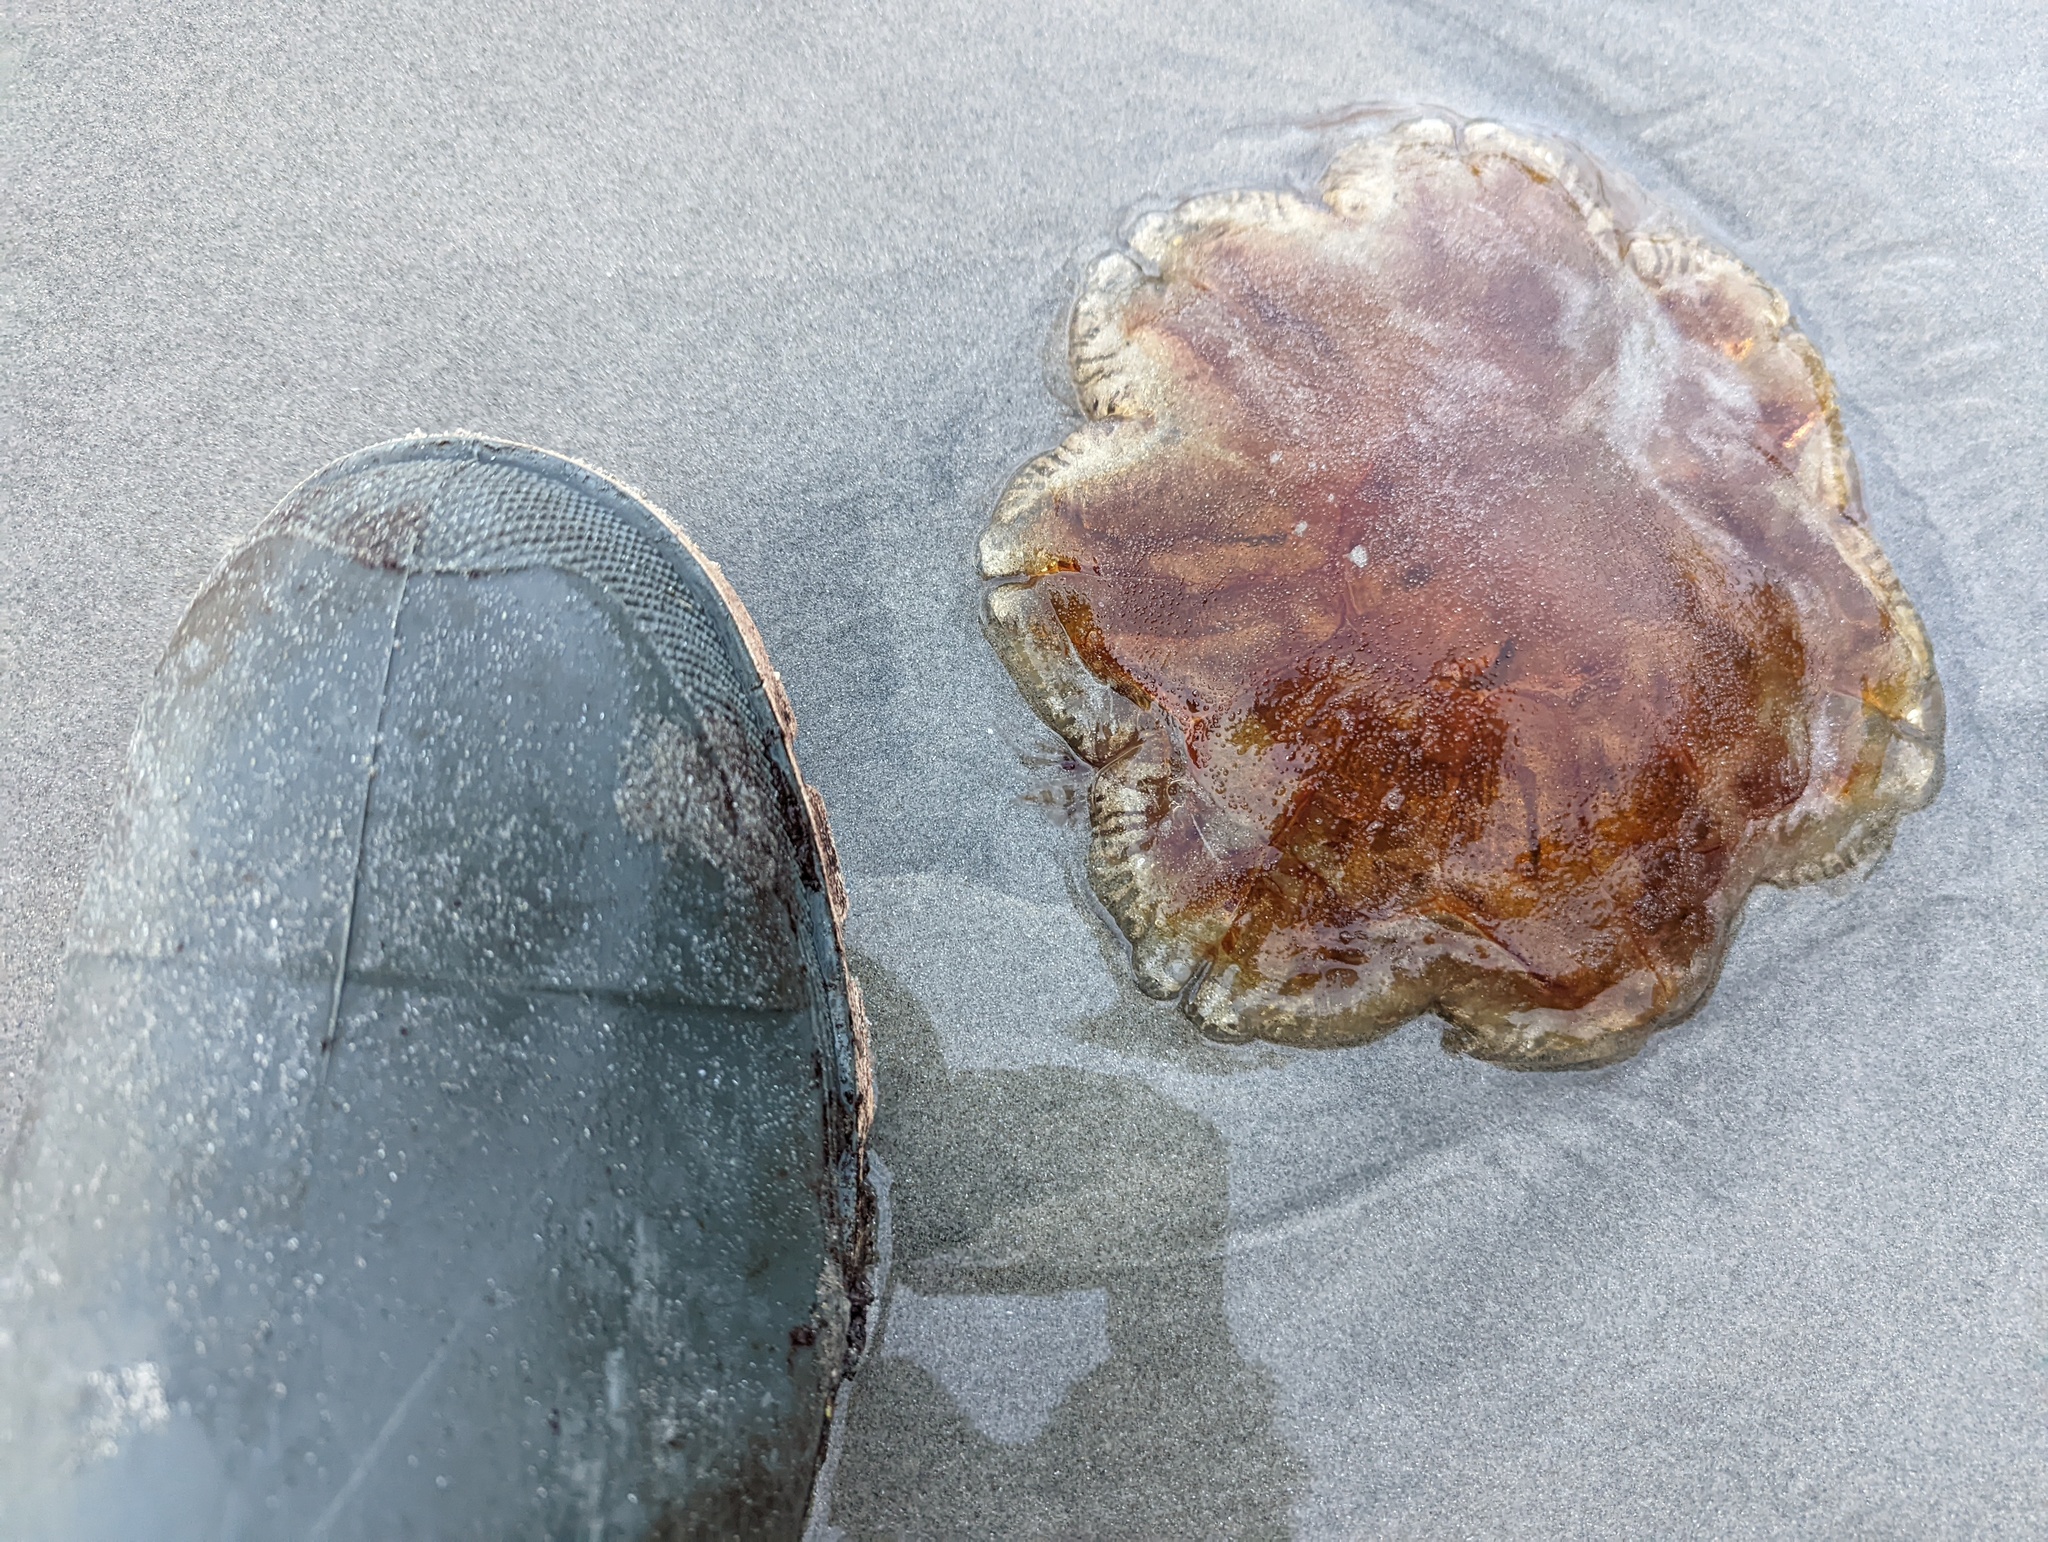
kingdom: Animalia
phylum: Cnidaria
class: Scyphozoa
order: Semaeostomeae
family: Cyaneidae
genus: Cyanea
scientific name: Cyanea ferruginea
